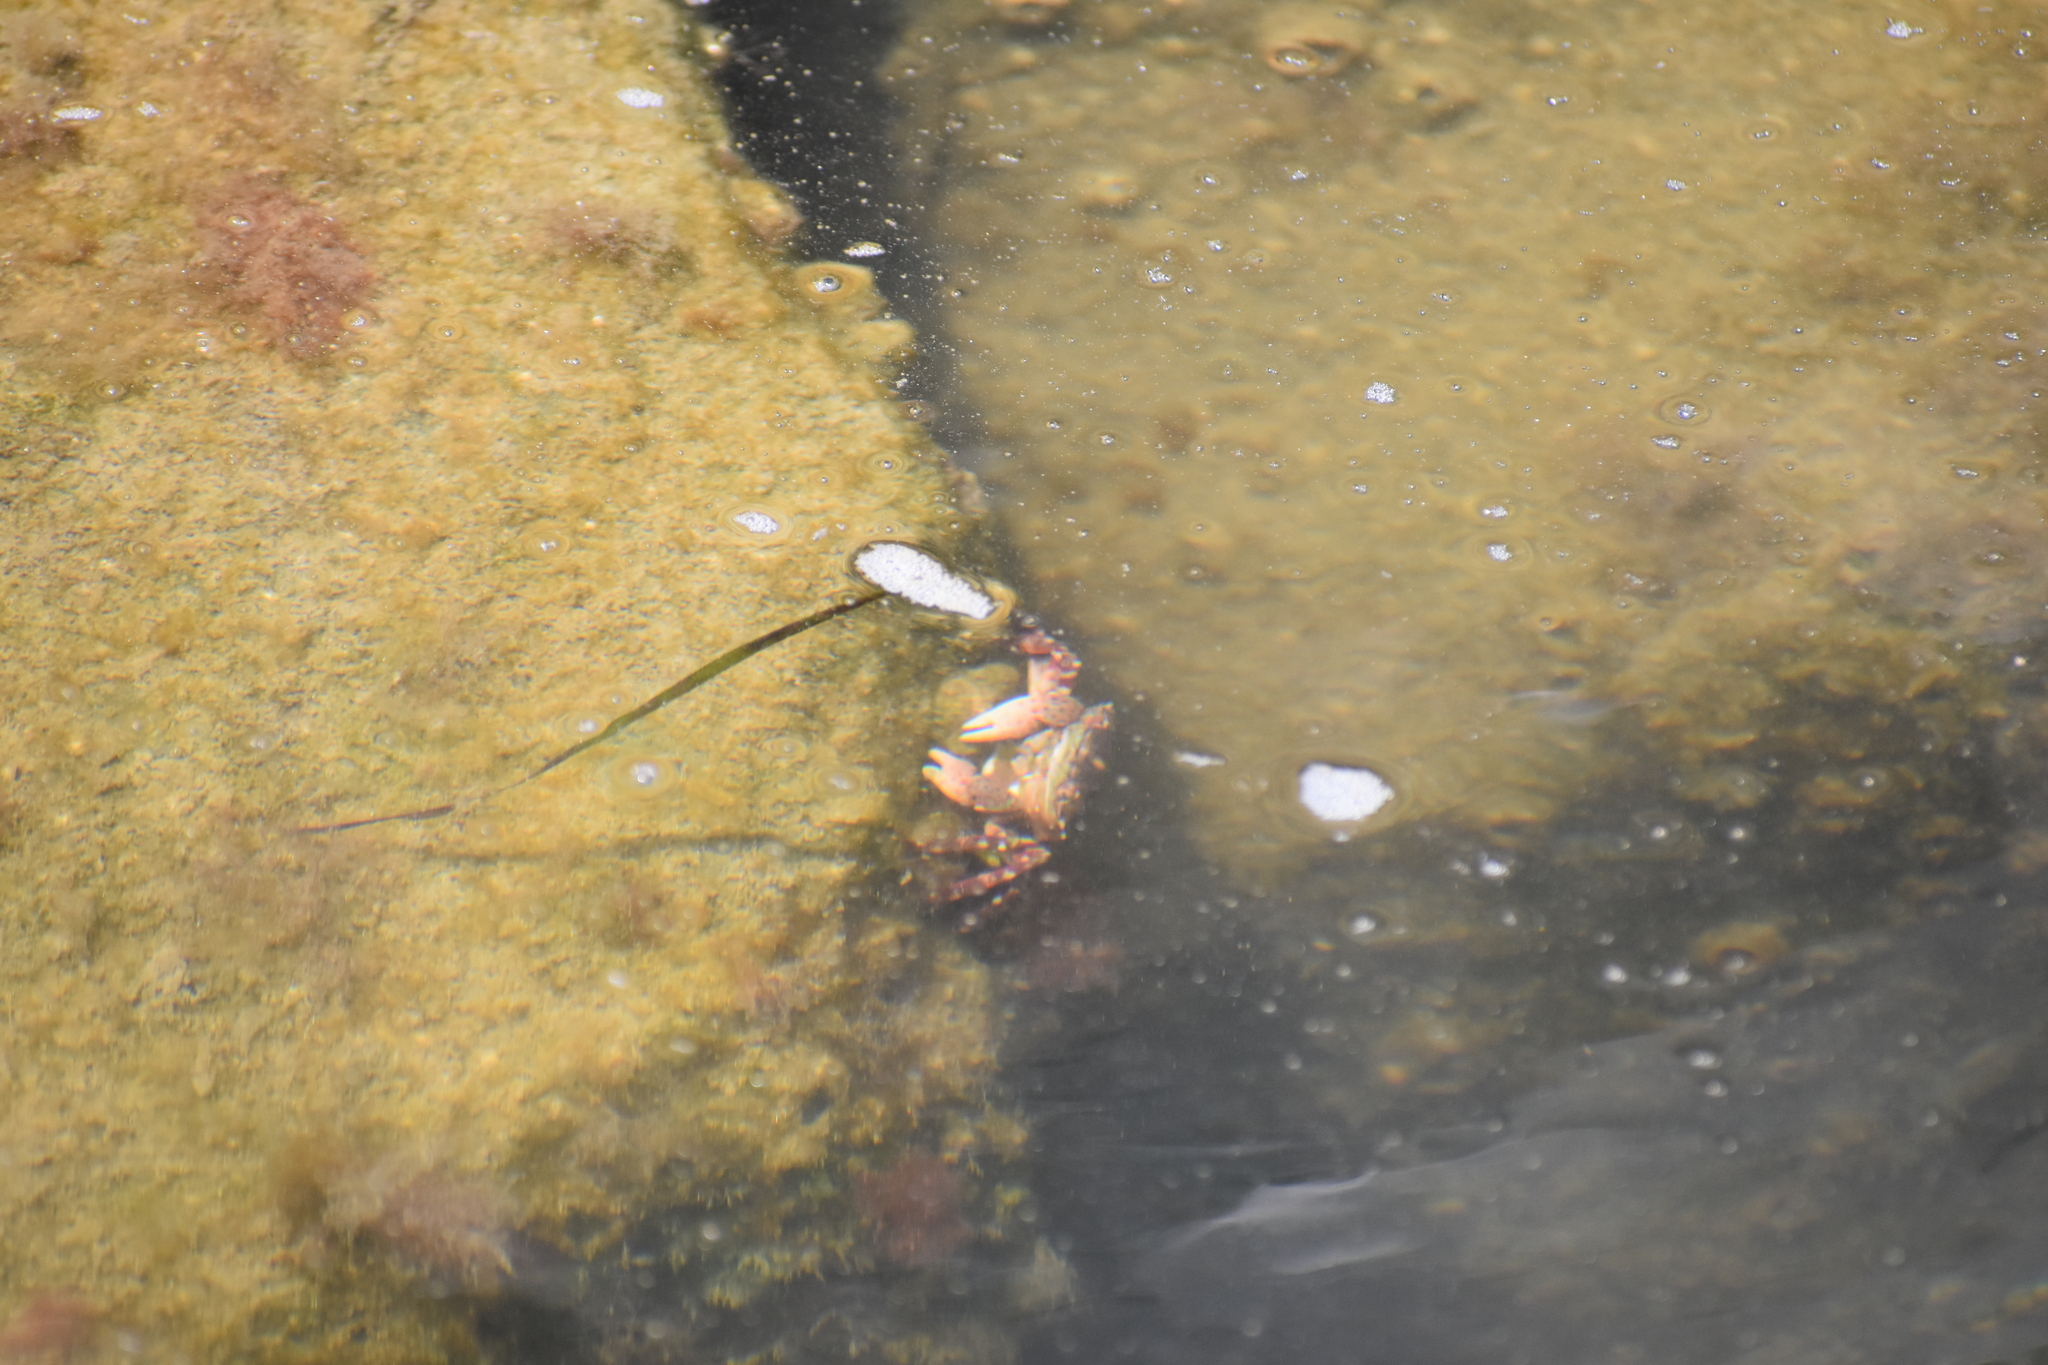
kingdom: Animalia
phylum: Arthropoda
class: Malacostraca
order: Decapoda
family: Varunidae
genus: Hemigrapsus
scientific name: Hemigrapsus sanguineus
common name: Asian shore crab
